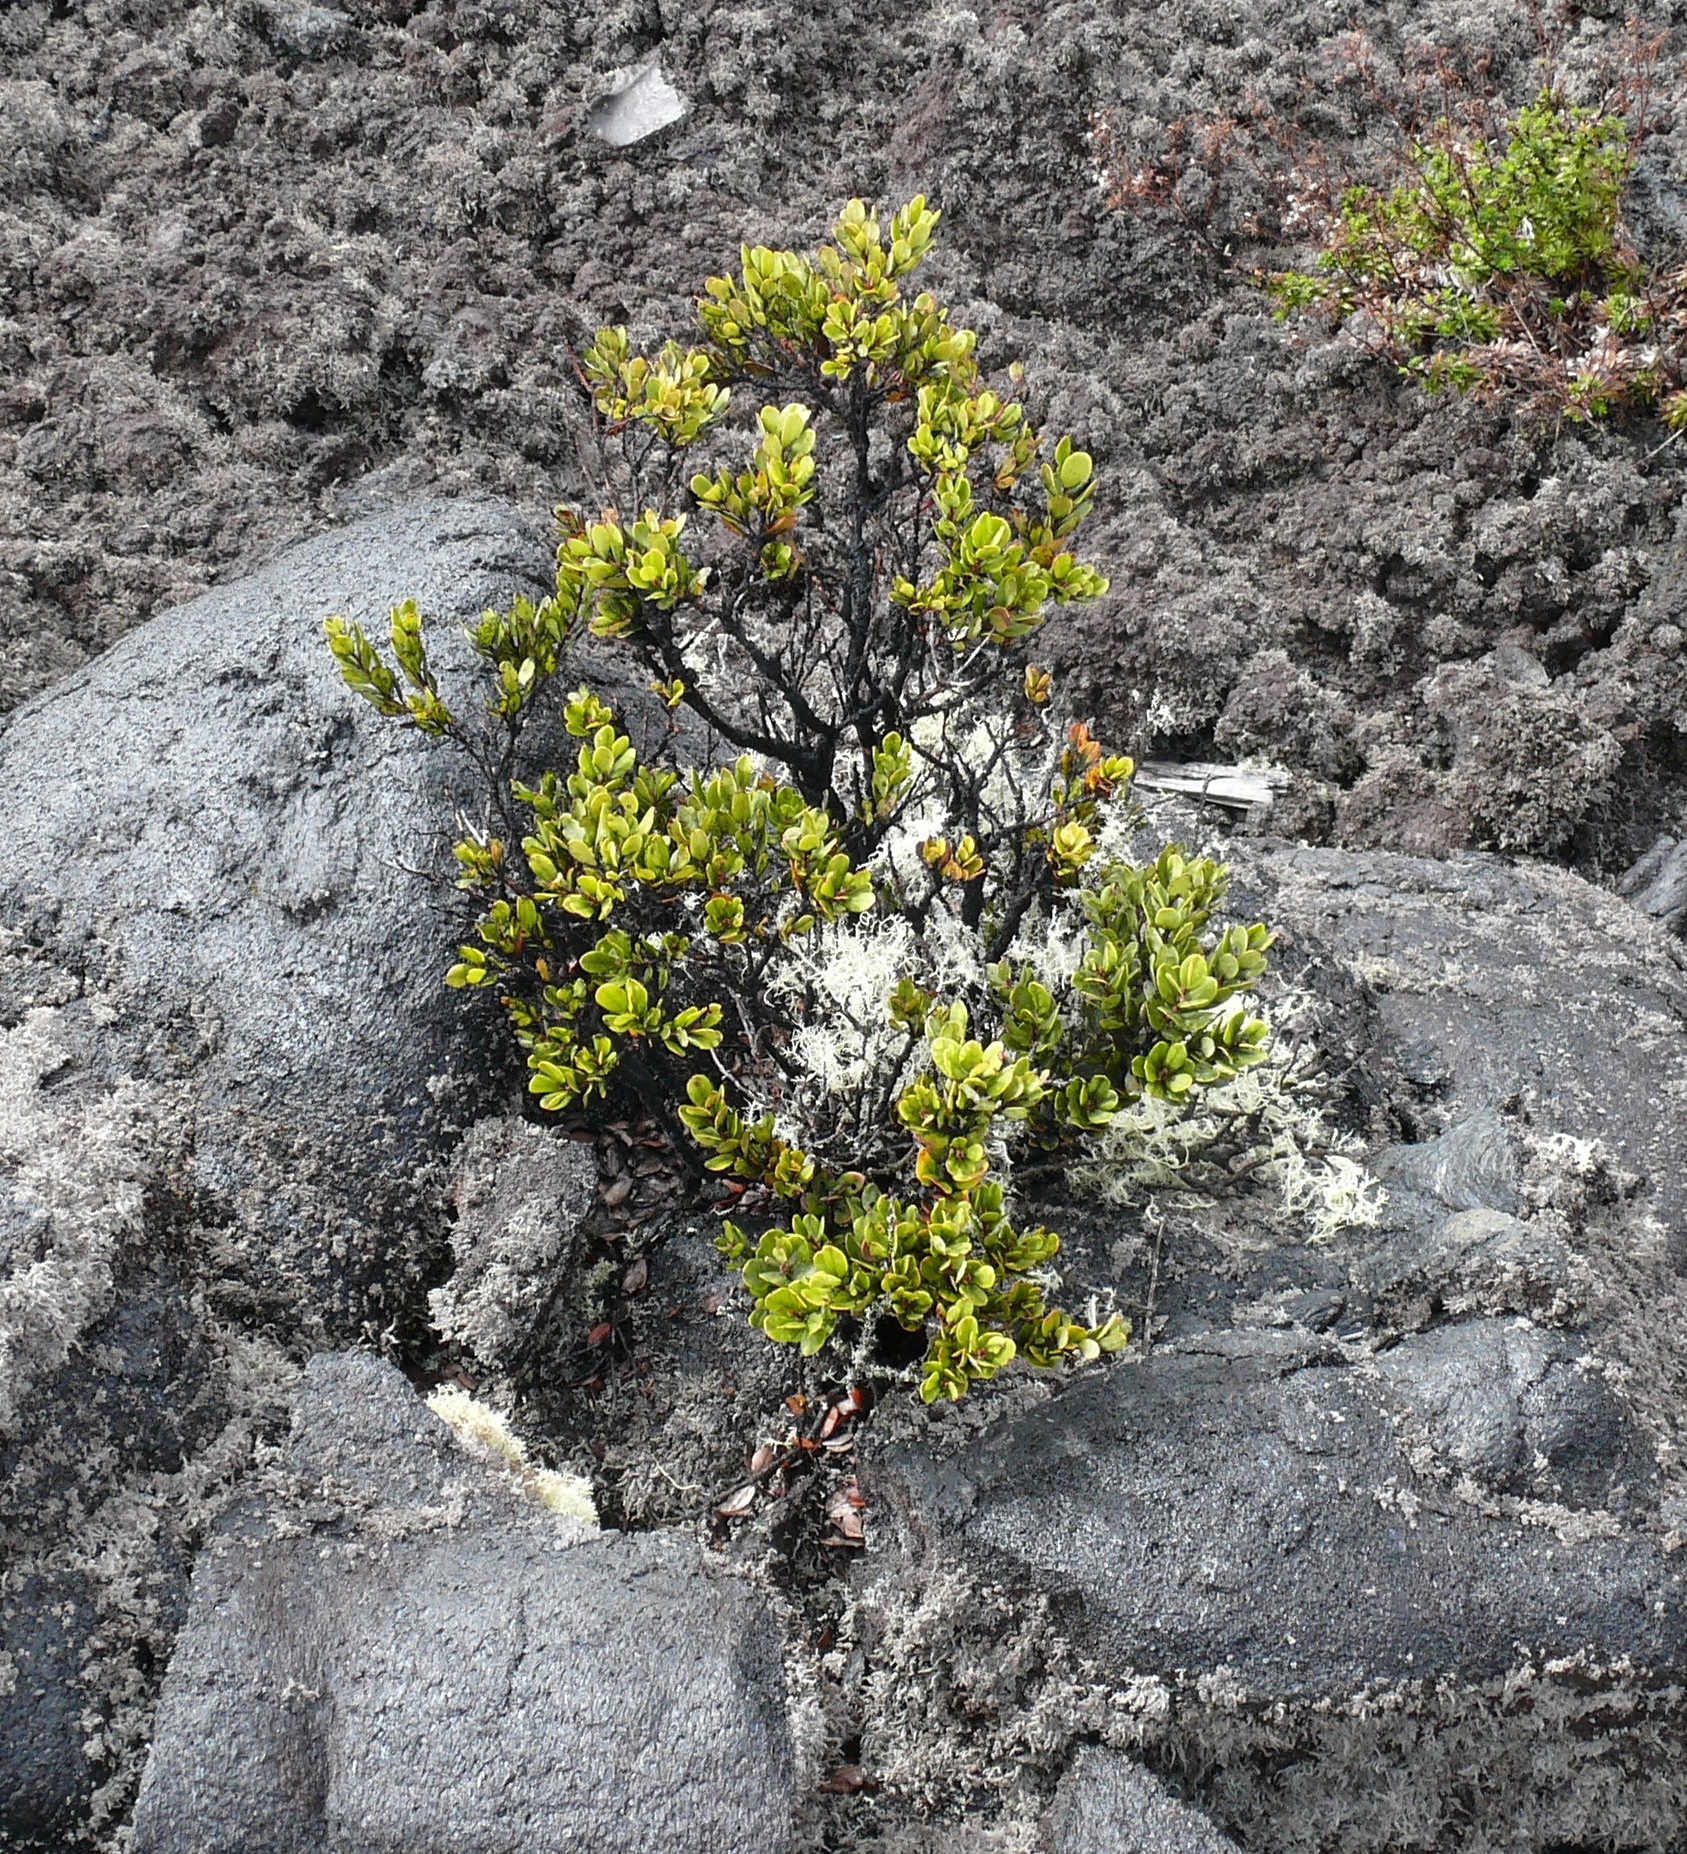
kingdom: Plantae
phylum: Tracheophyta
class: Magnoliopsida
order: Myrtales
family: Myrtaceae
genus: Metrosideros
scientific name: Metrosideros polymorpha
